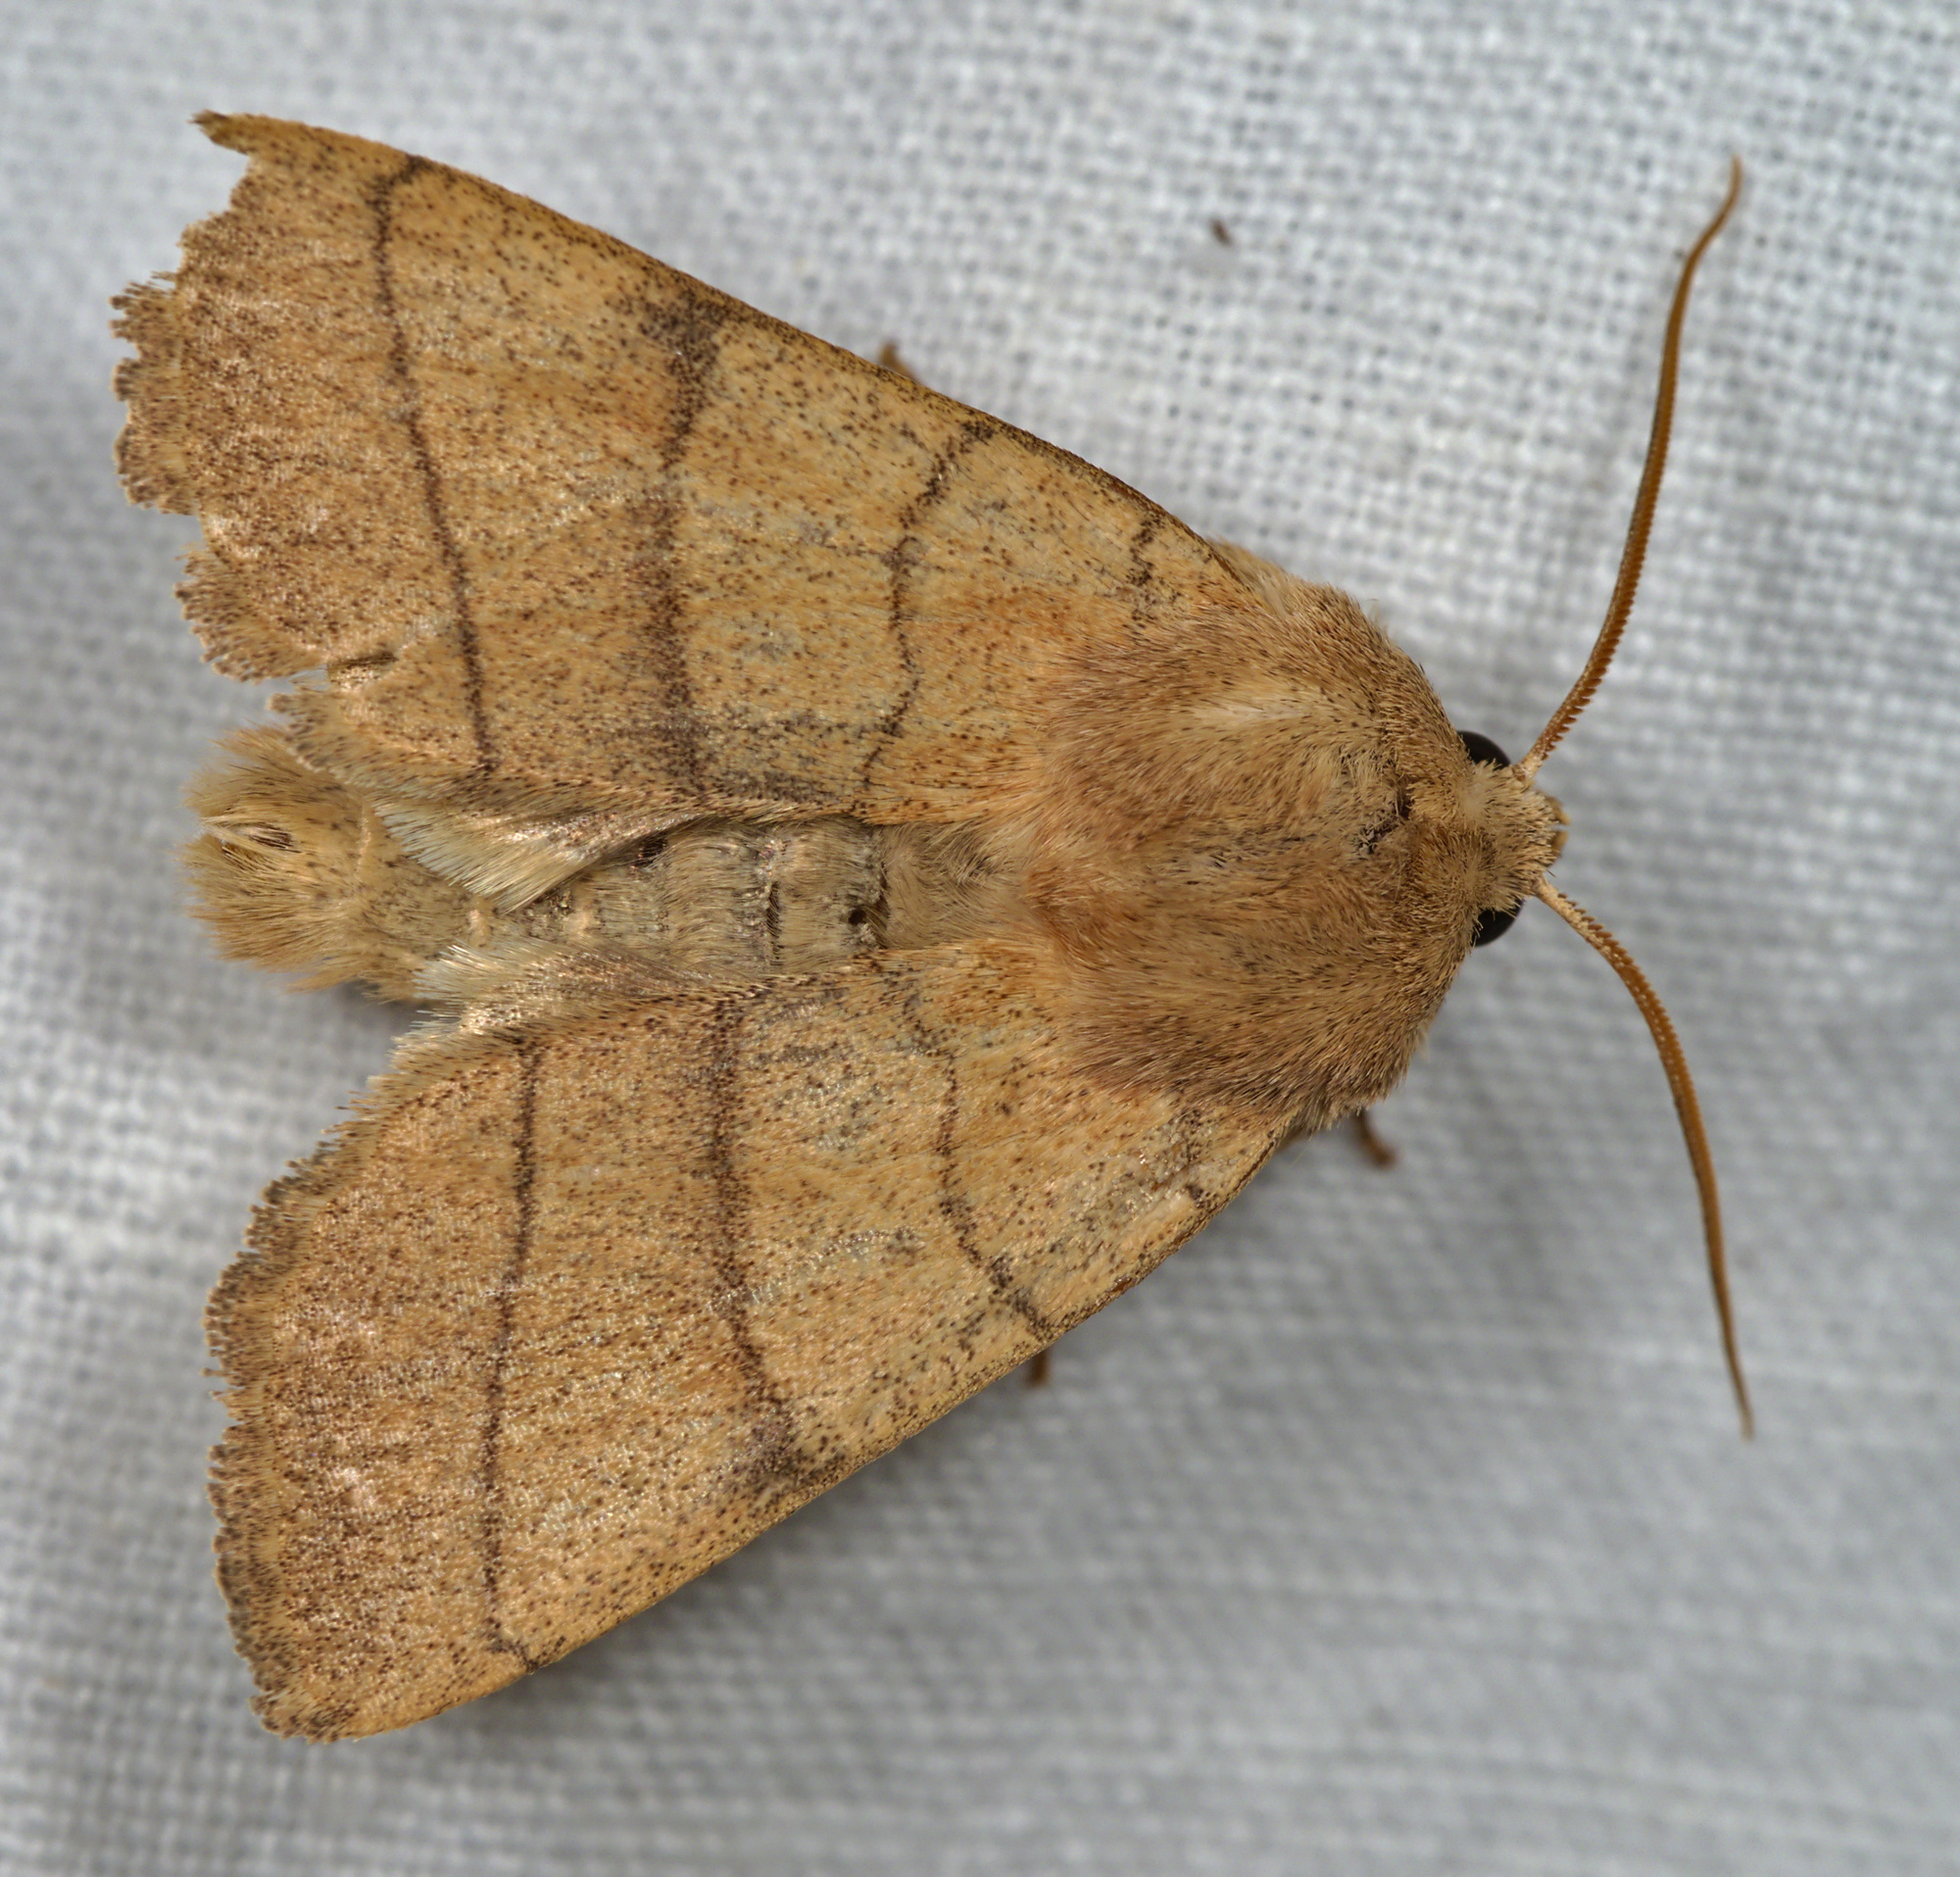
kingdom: Animalia
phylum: Arthropoda
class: Insecta
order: Lepidoptera
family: Noctuidae
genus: Charanyca
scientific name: Charanyca trigrammica
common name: Treble lines
